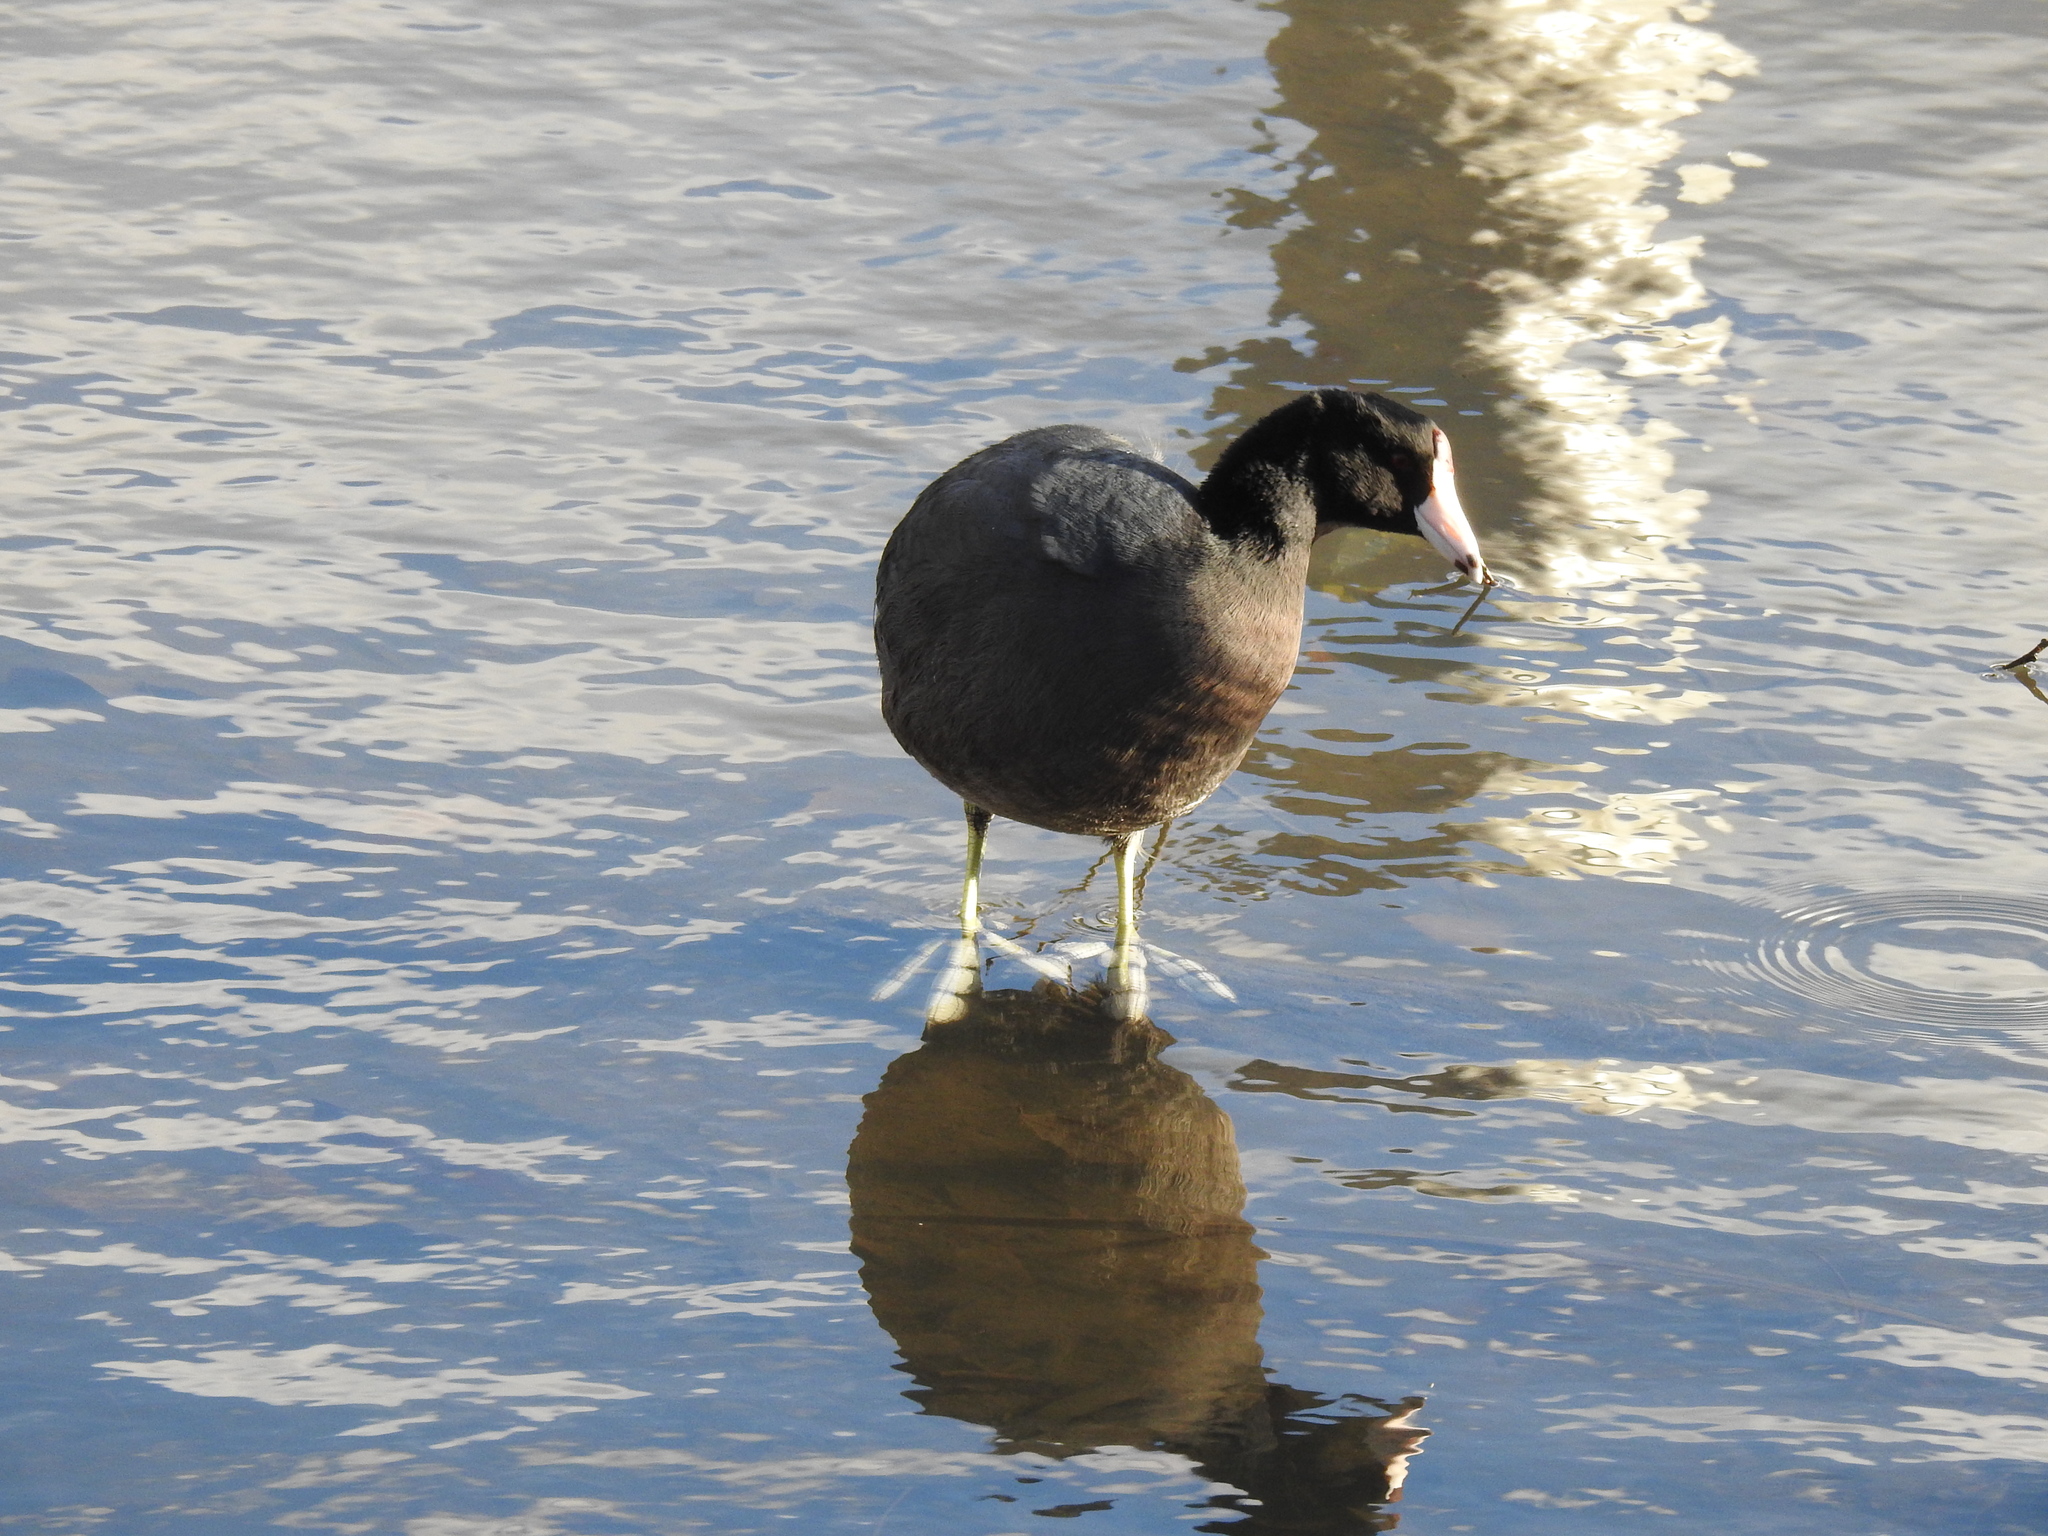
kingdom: Animalia
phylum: Chordata
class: Aves
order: Gruiformes
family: Rallidae
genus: Fulica
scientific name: Fulica americana
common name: American coot
